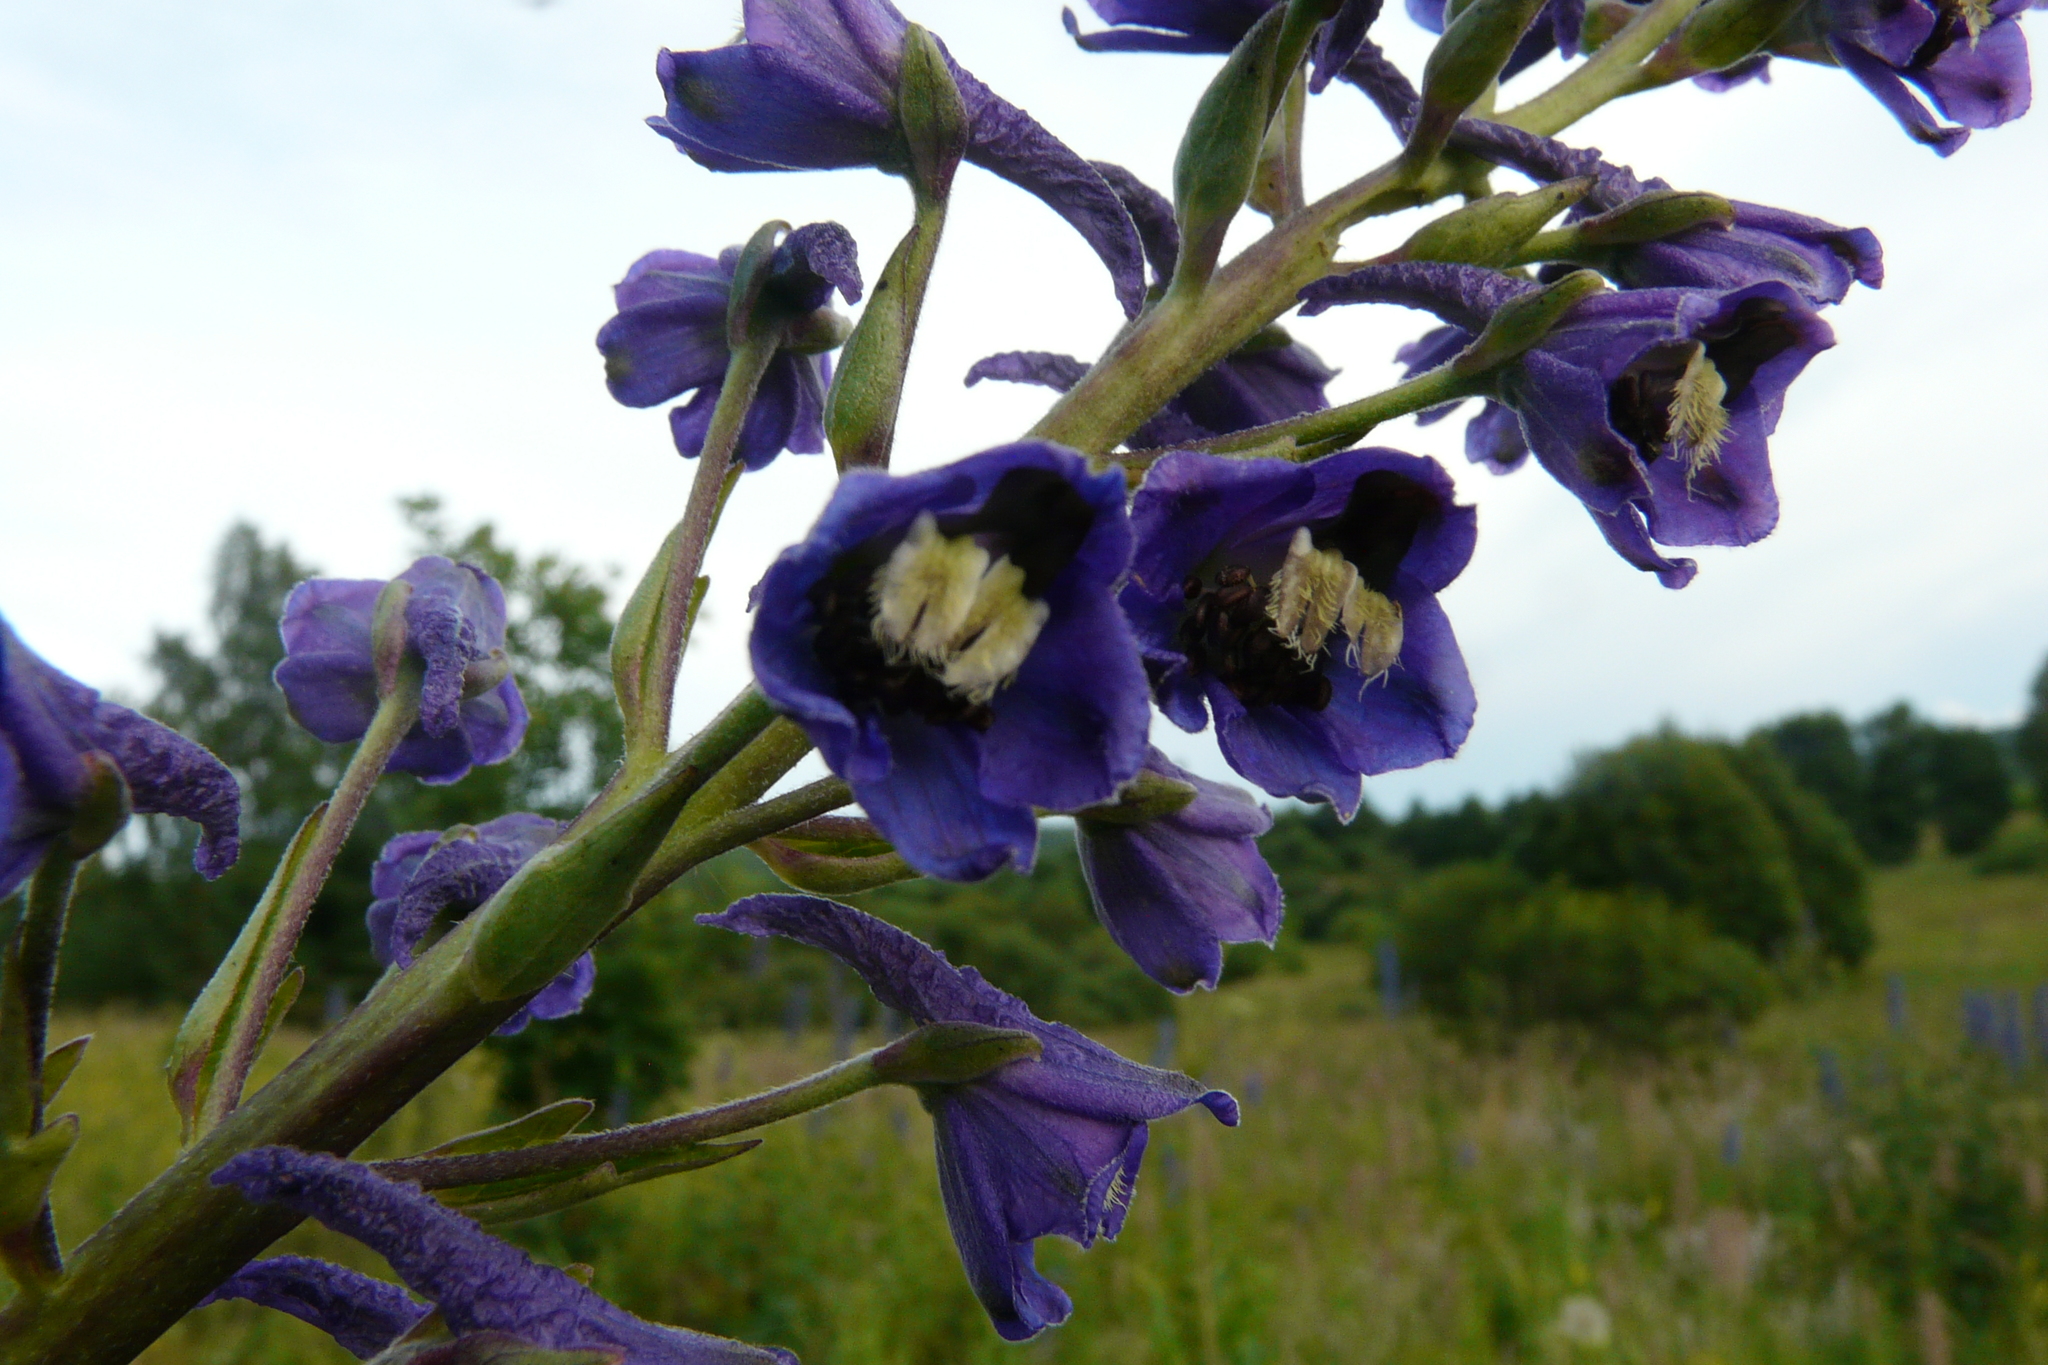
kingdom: Plantae
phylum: Tracheophyta
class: Magnoliopsida
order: Ranunculales
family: Ranunculaceae
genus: Delphinium
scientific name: Delphinium cuneatum
